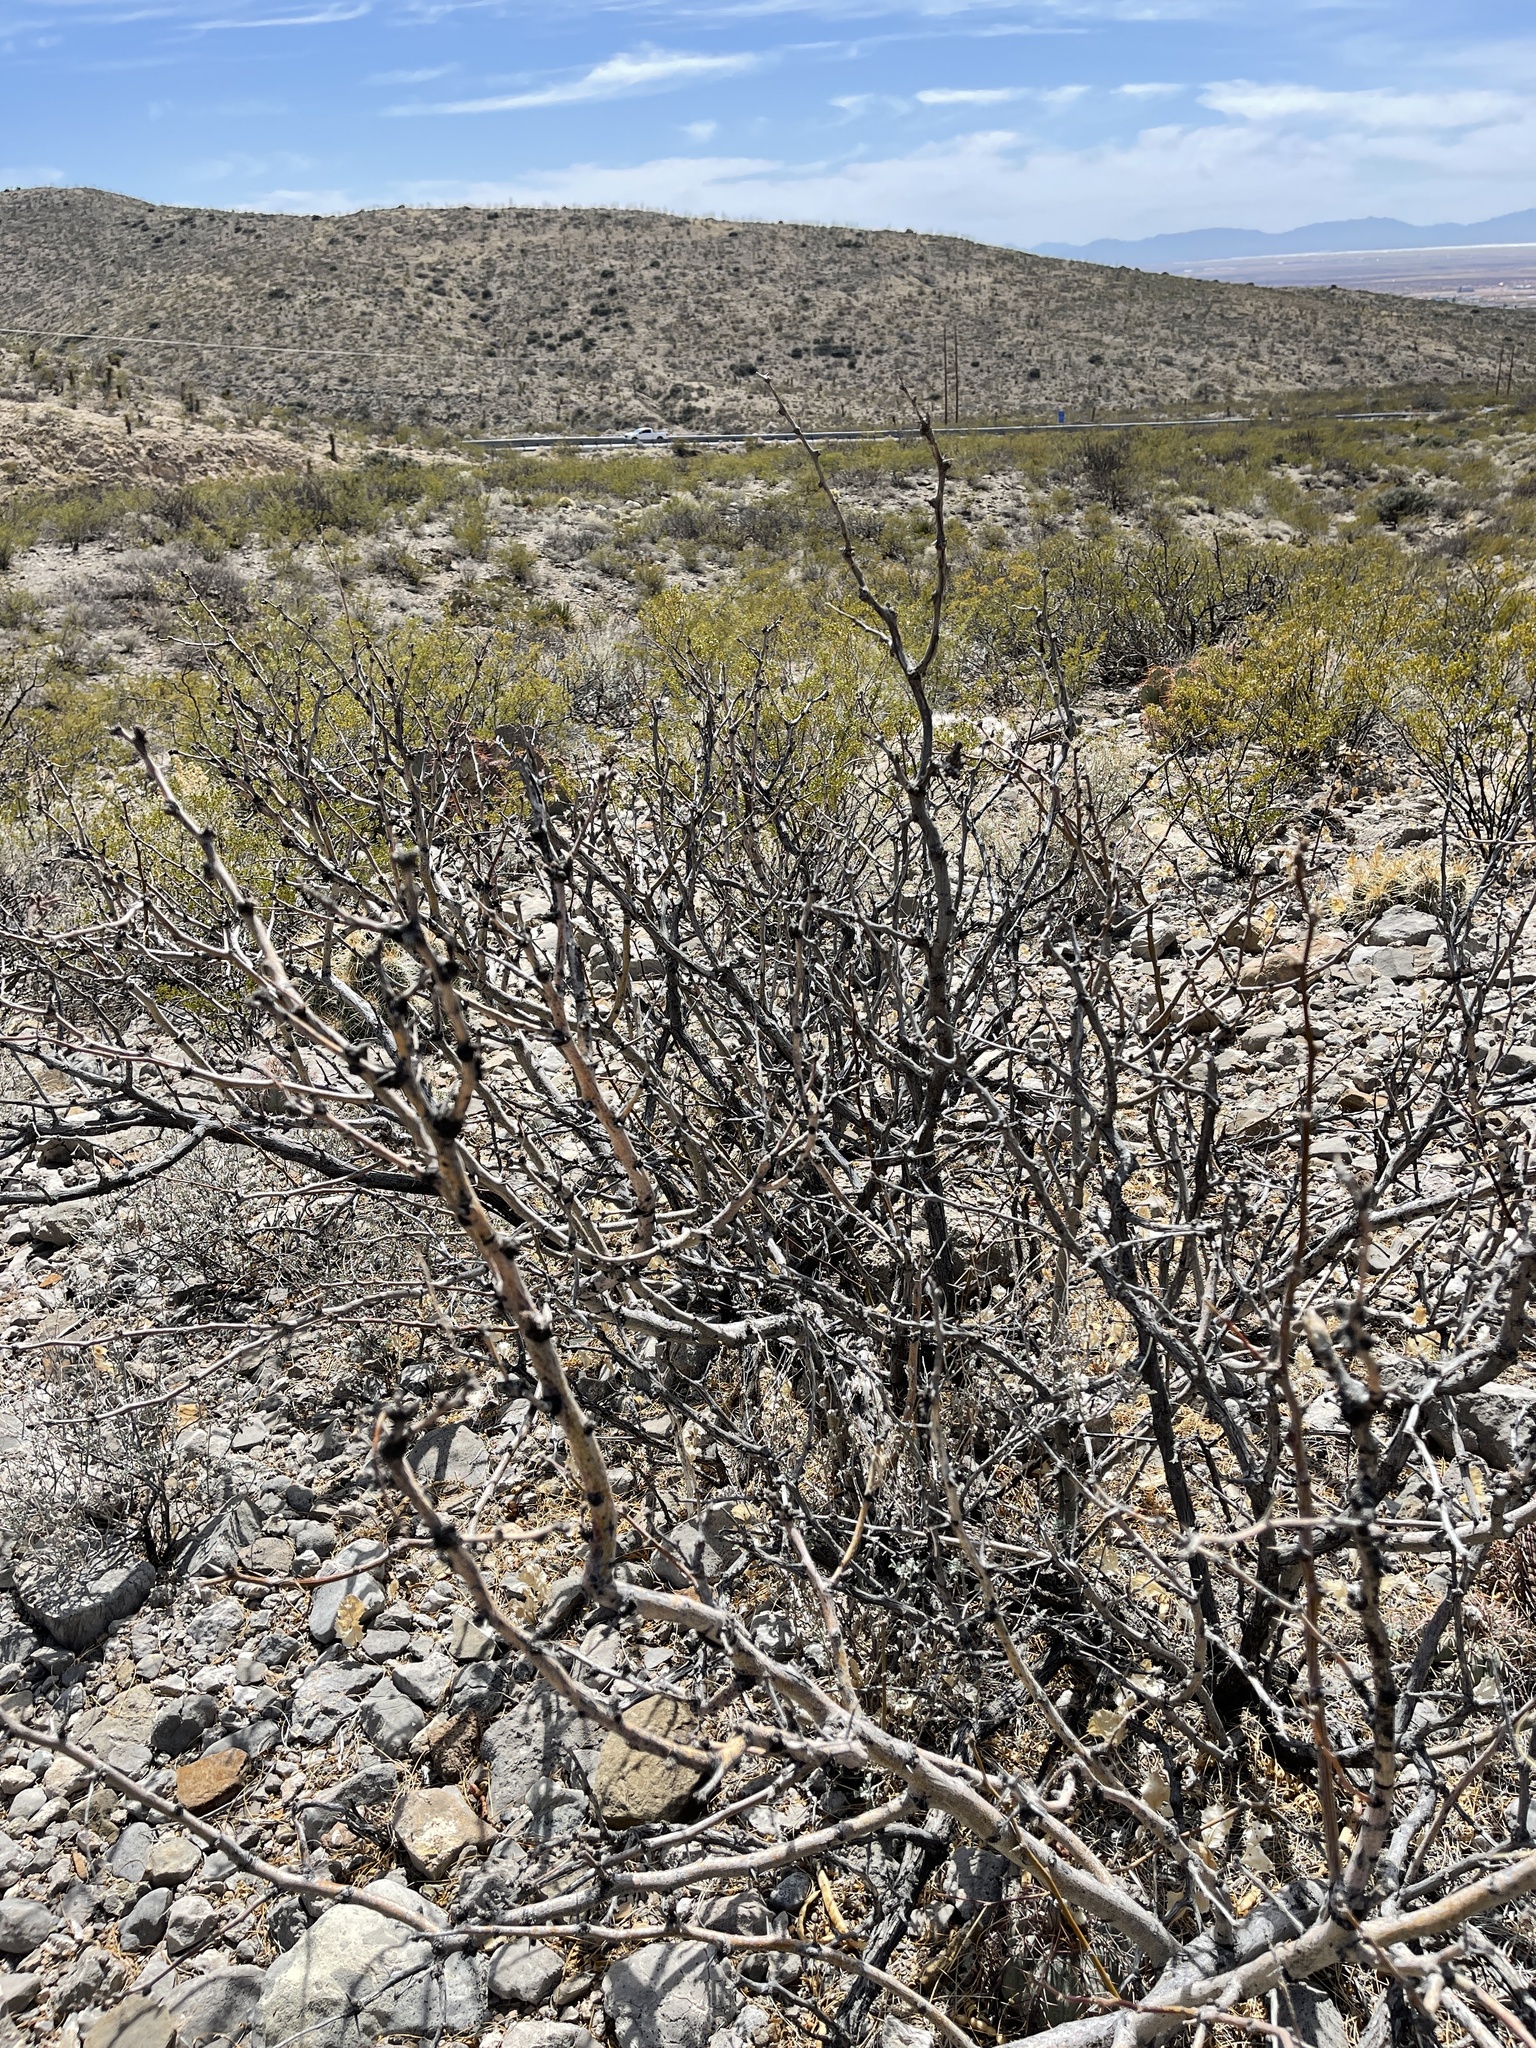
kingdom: Plantae
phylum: Tracheophyta
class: Magnoliopsida
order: Fabales
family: Fabaceae
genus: Prosopis
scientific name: Prosopis glandulosa
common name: Honey mesquite
